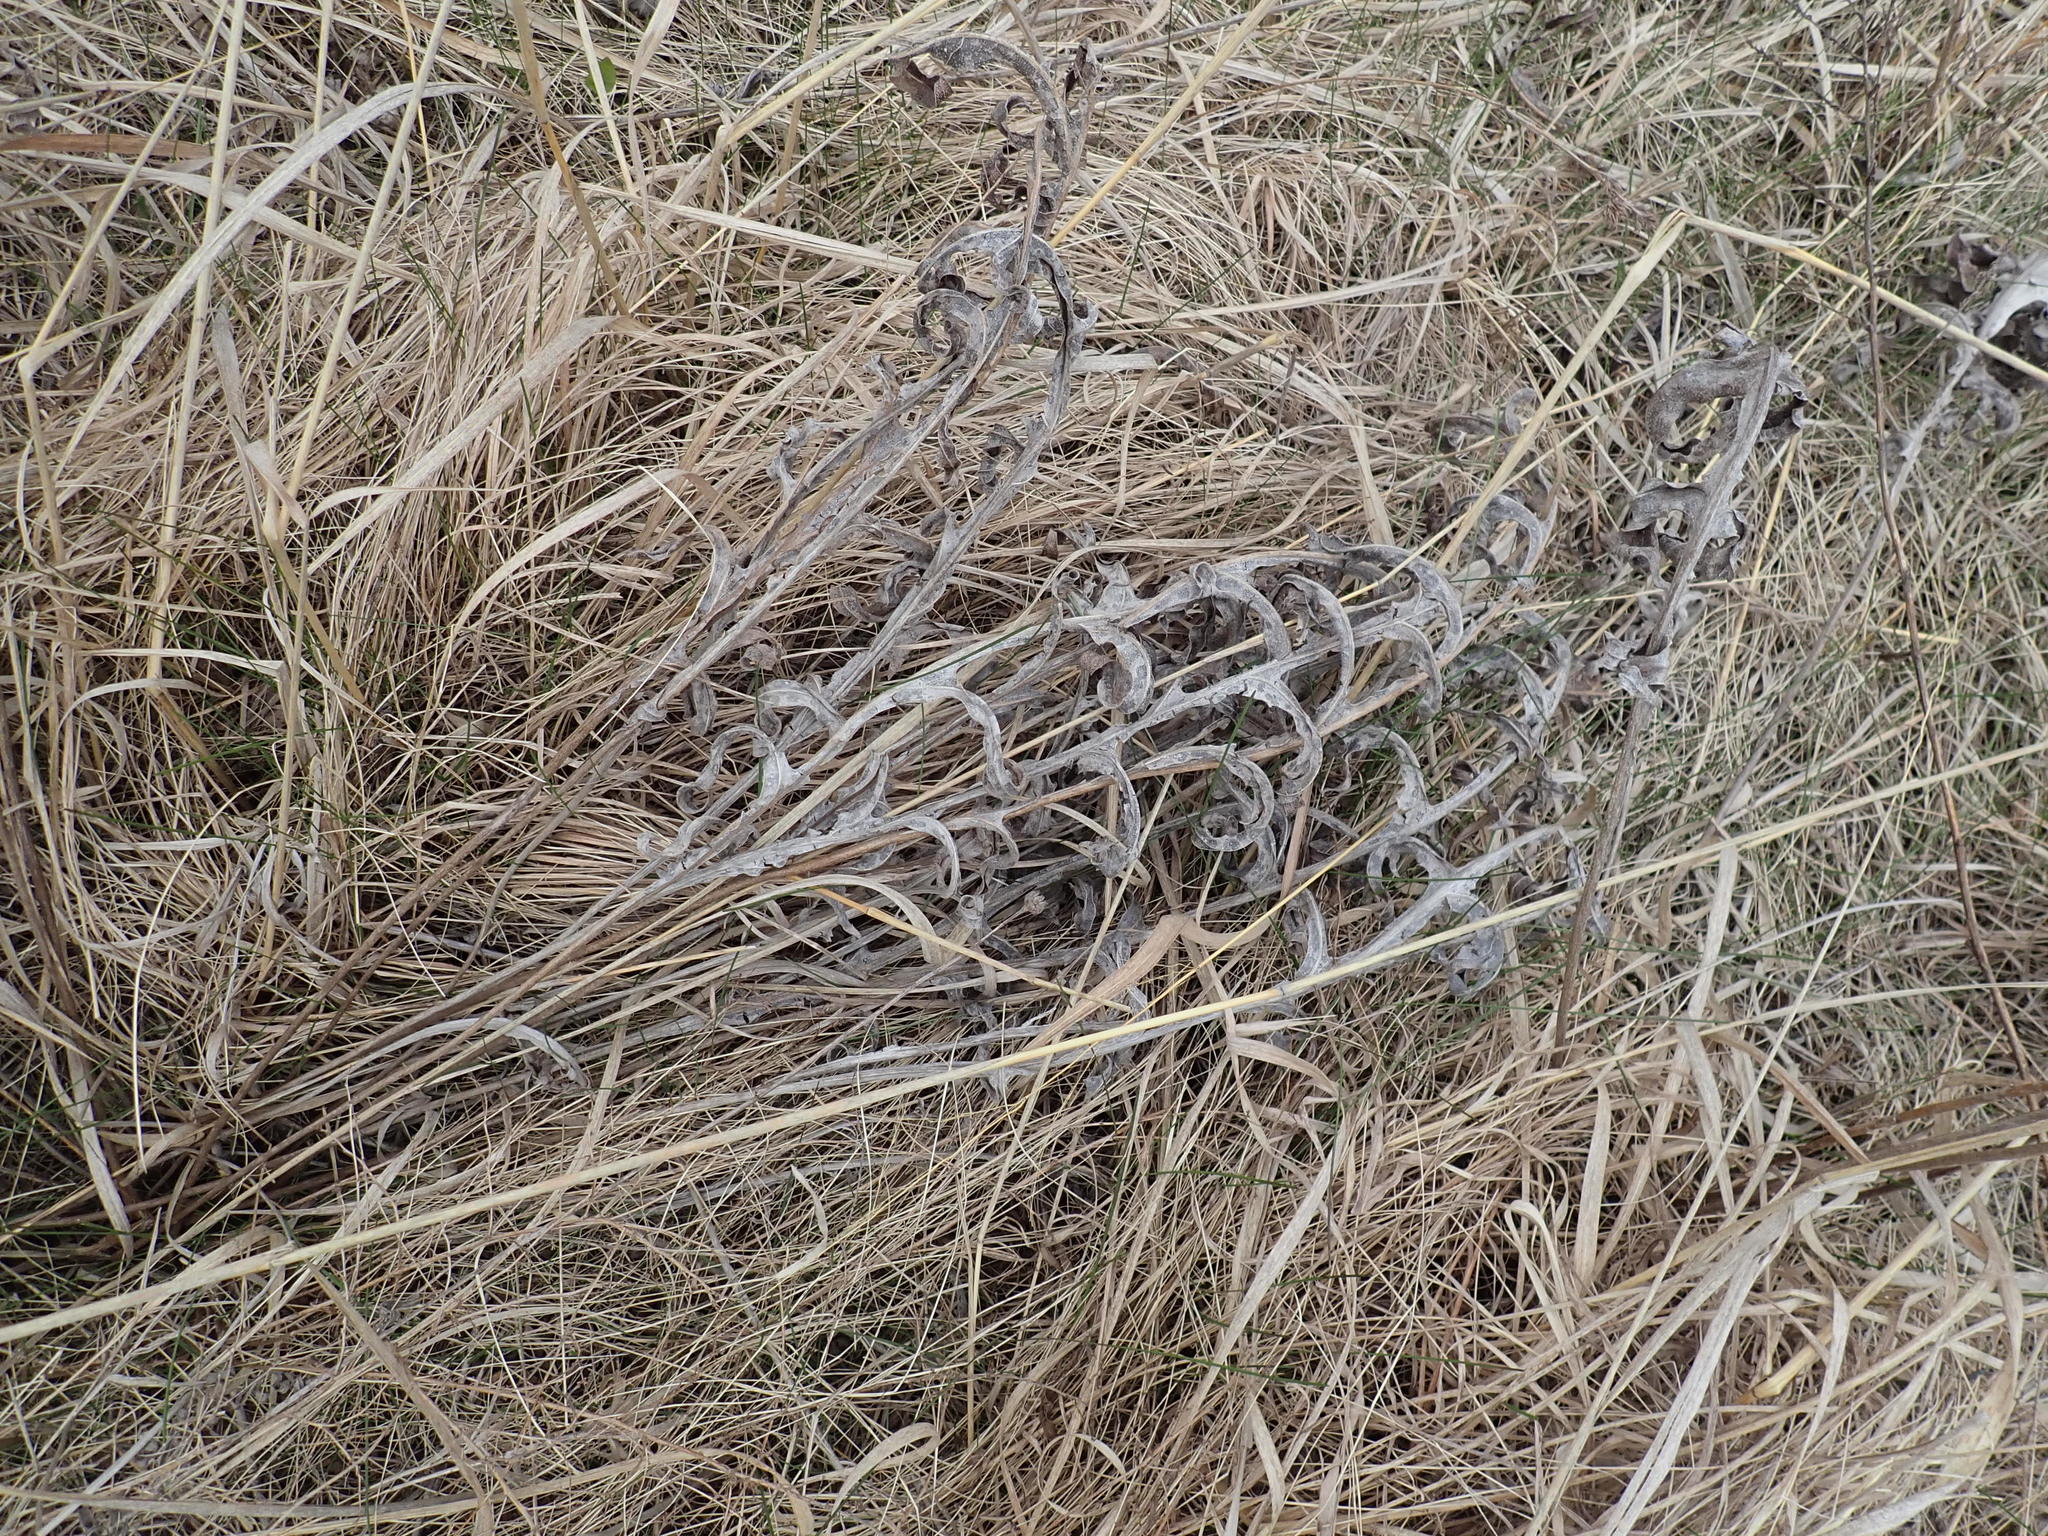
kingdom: Plantae
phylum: Tracheophyta
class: Magnoliopsida
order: Asterales
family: Asteraceae
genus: Silphium
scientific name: Silphium laciniatum
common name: Polarplant
